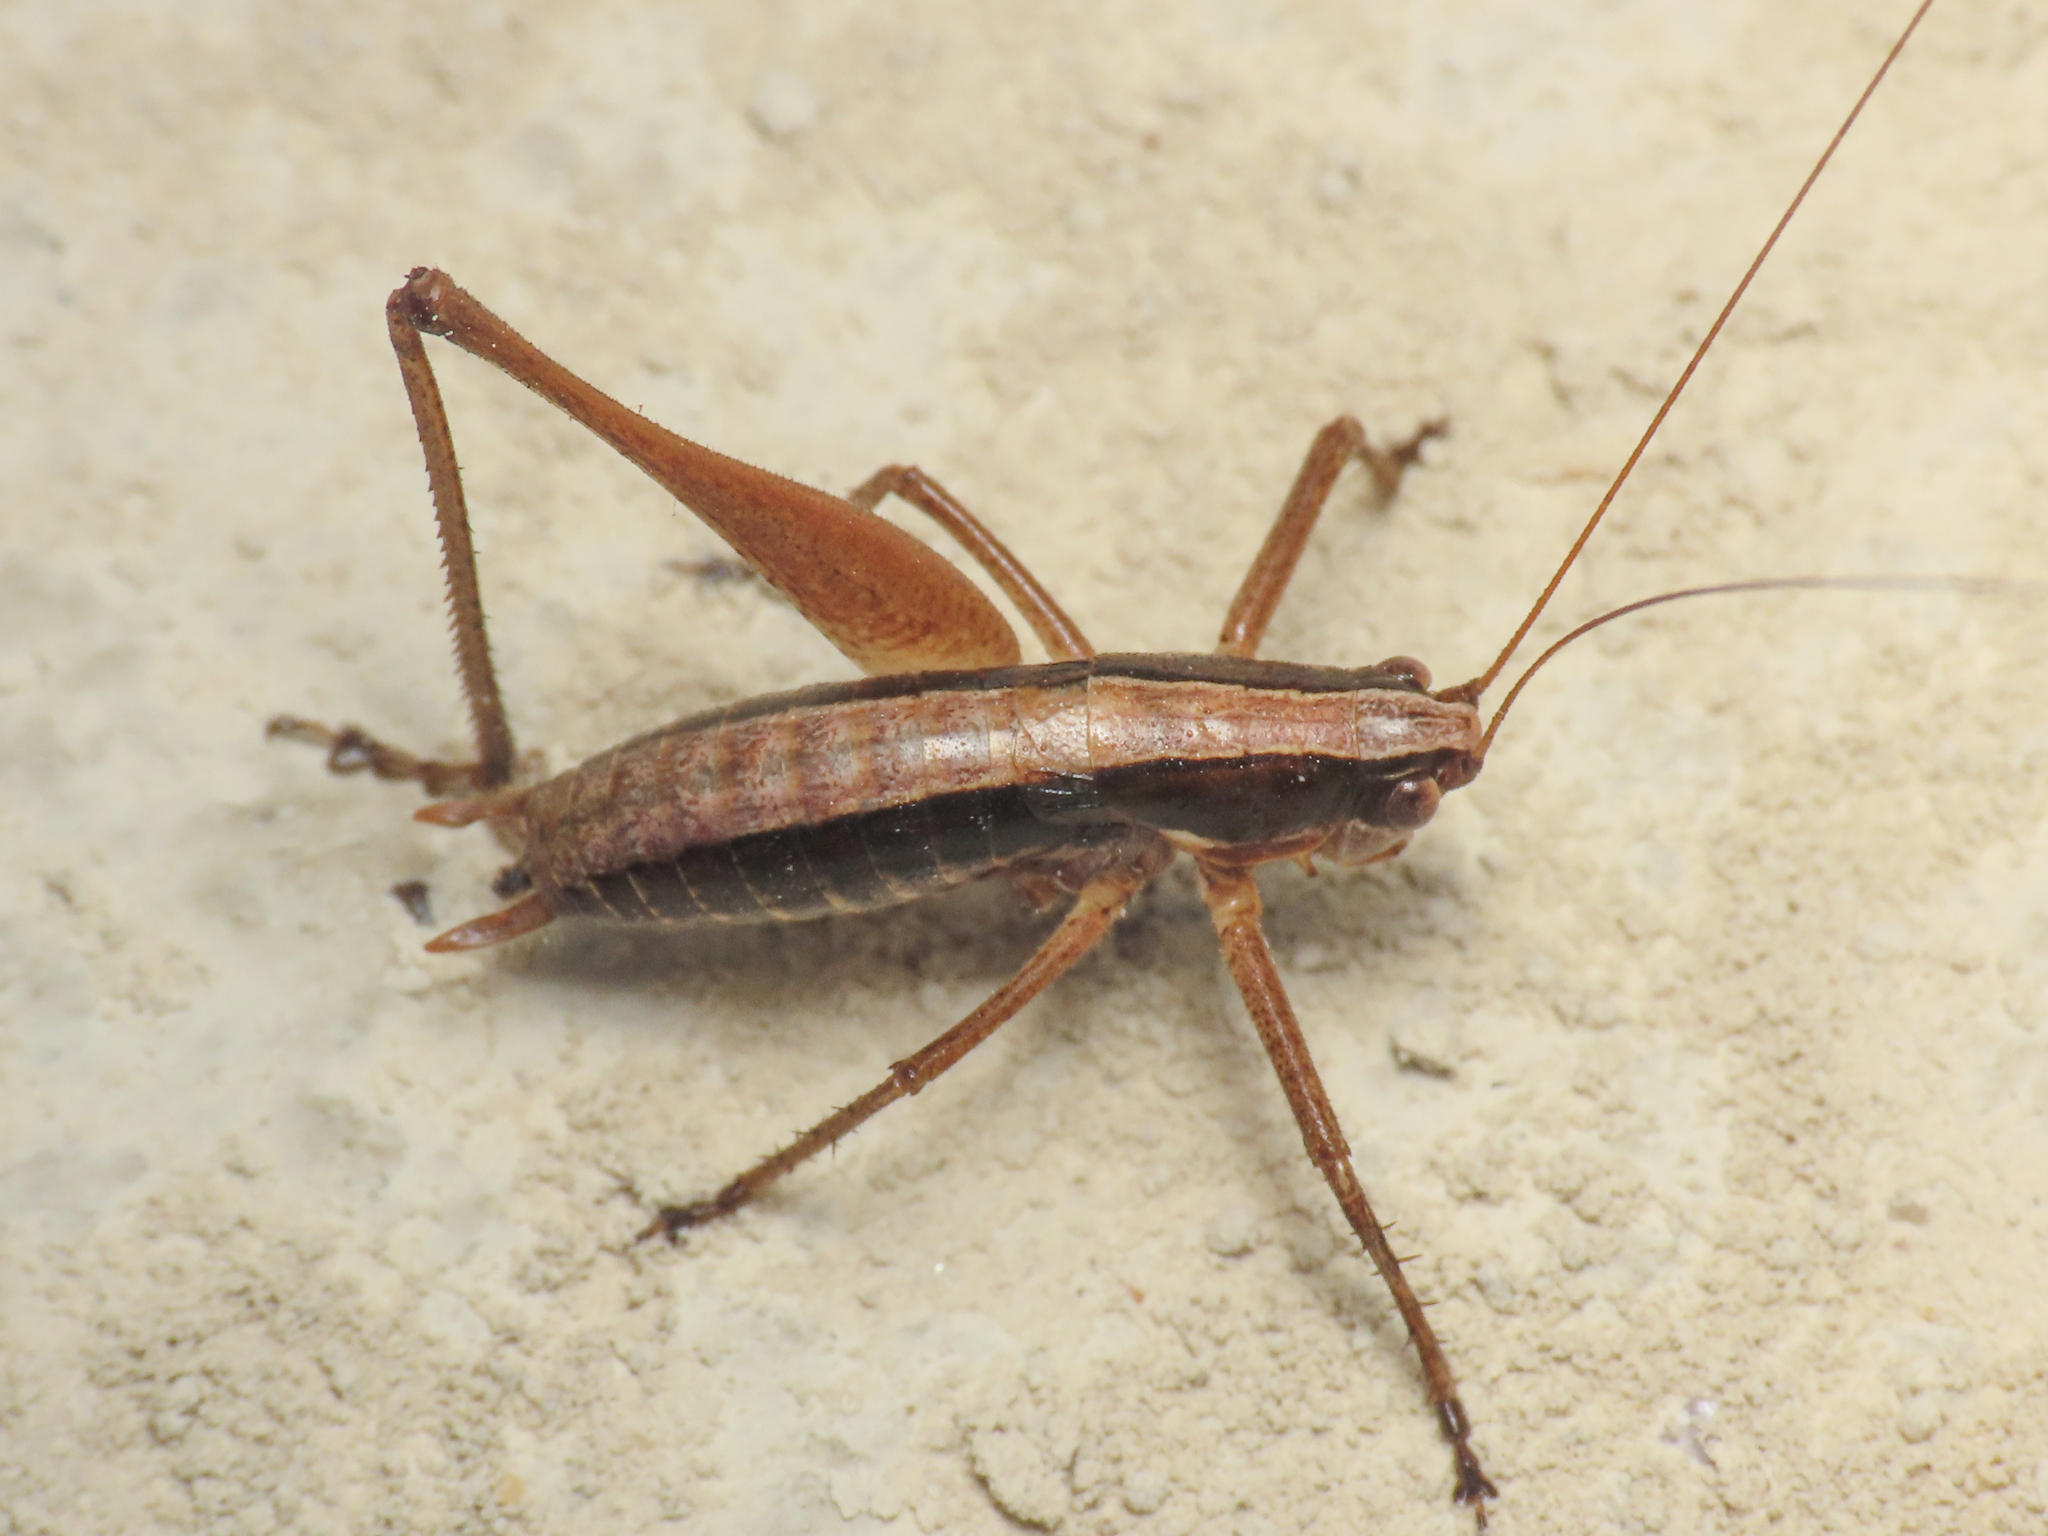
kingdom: Animalia
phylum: Arthropoda
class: Insecta
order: Orthoptera
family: Tettigoniidae
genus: Yersinella
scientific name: Yersinella raymondii
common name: Raymond's bush-cricket
